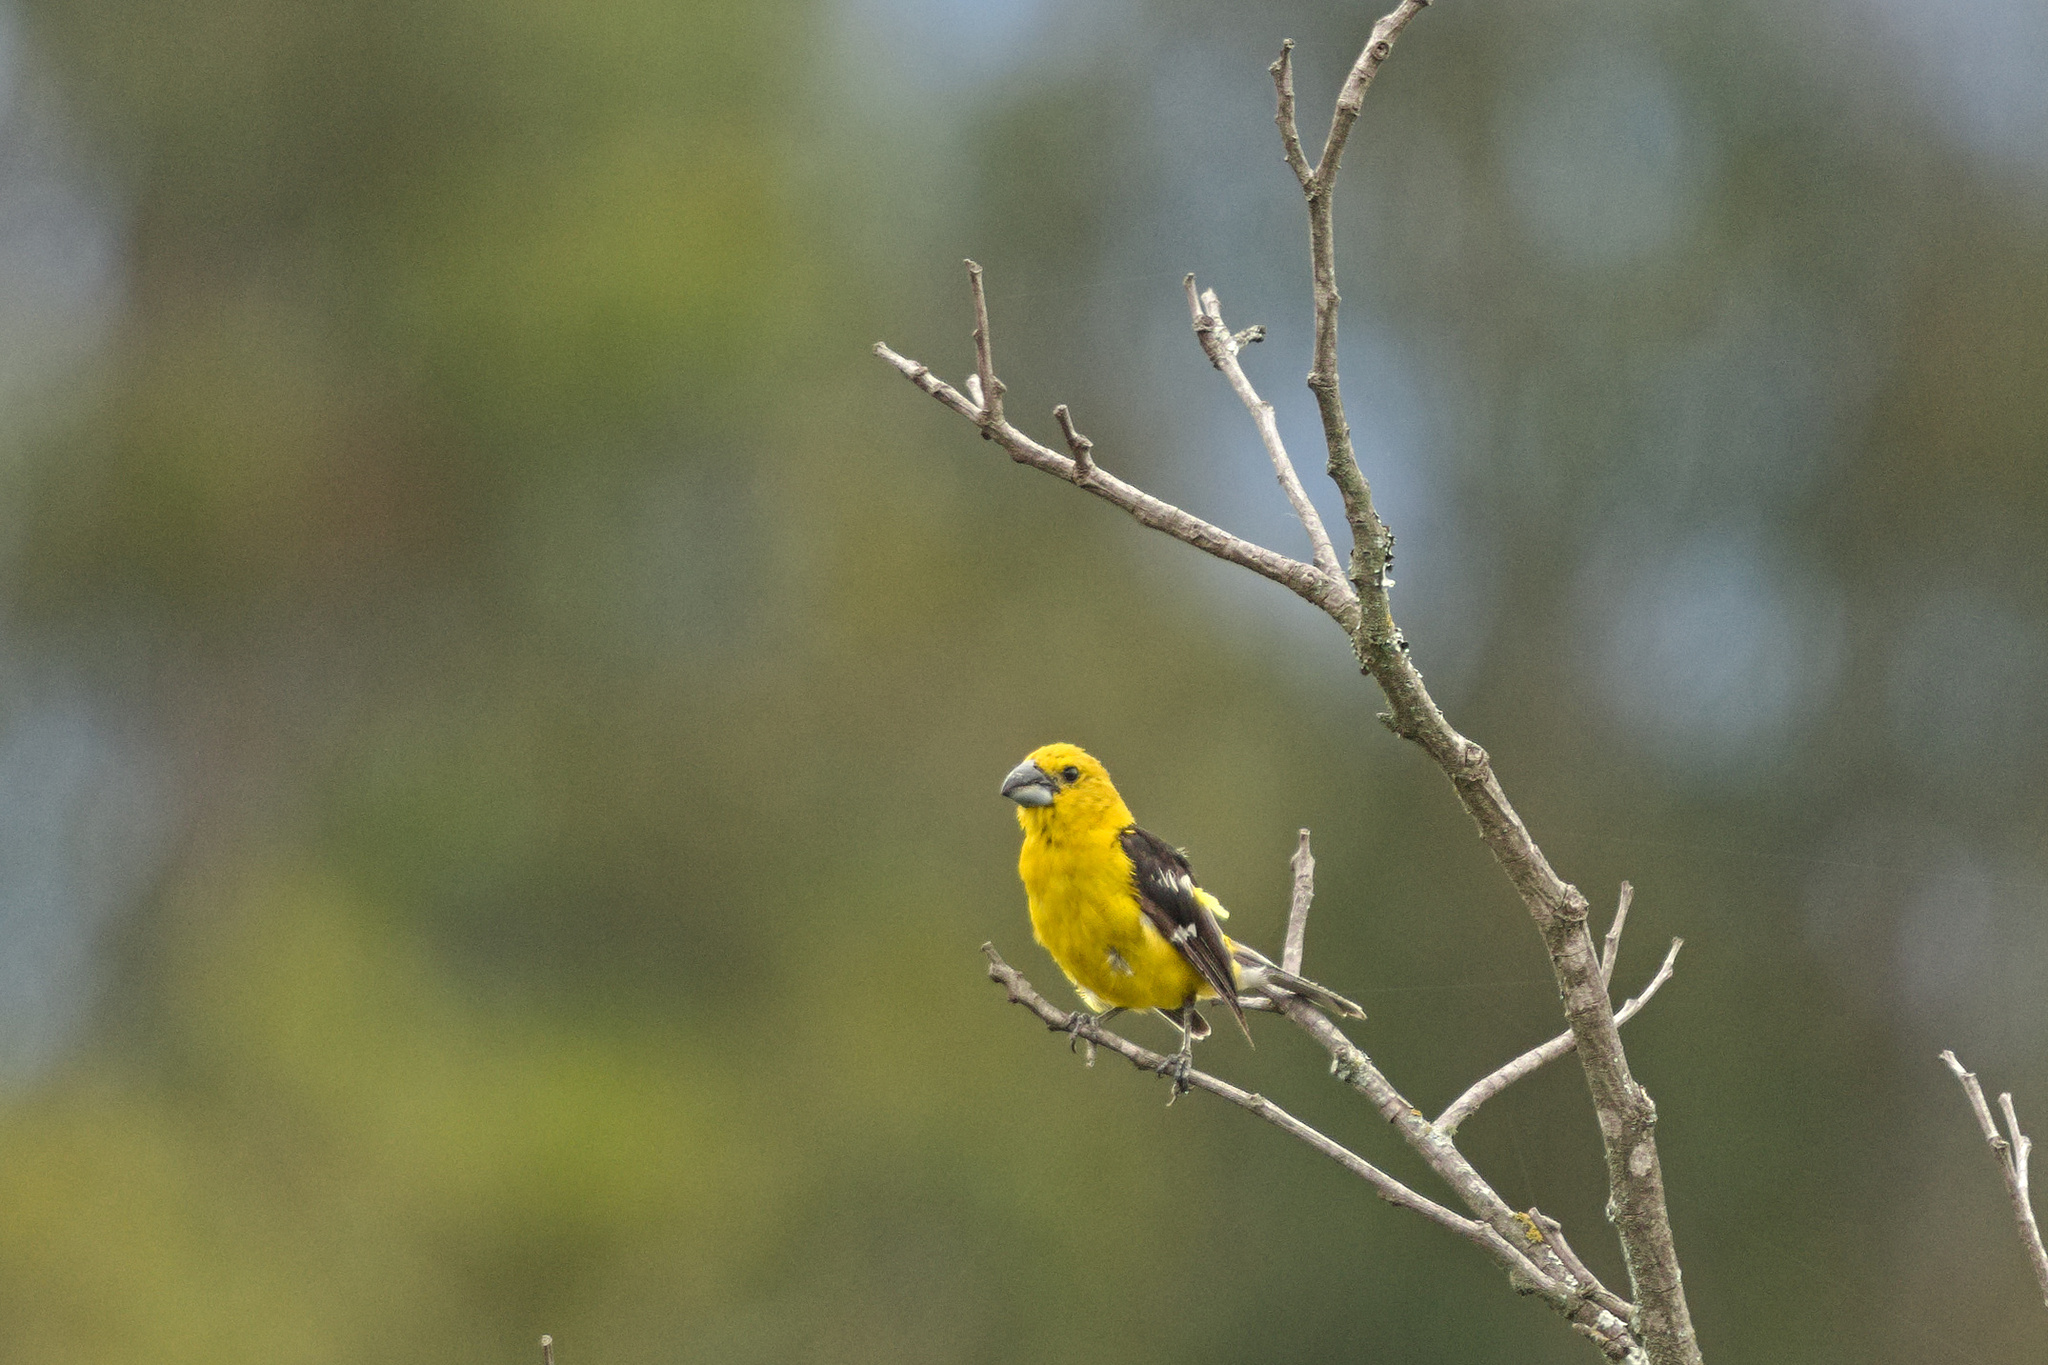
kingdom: Animalia
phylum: Chordata
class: Aves
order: Passeriformes
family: Cardinalidae
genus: Pheucticus
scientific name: Pheucticus chrysogaster
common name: Golden grosbeak
